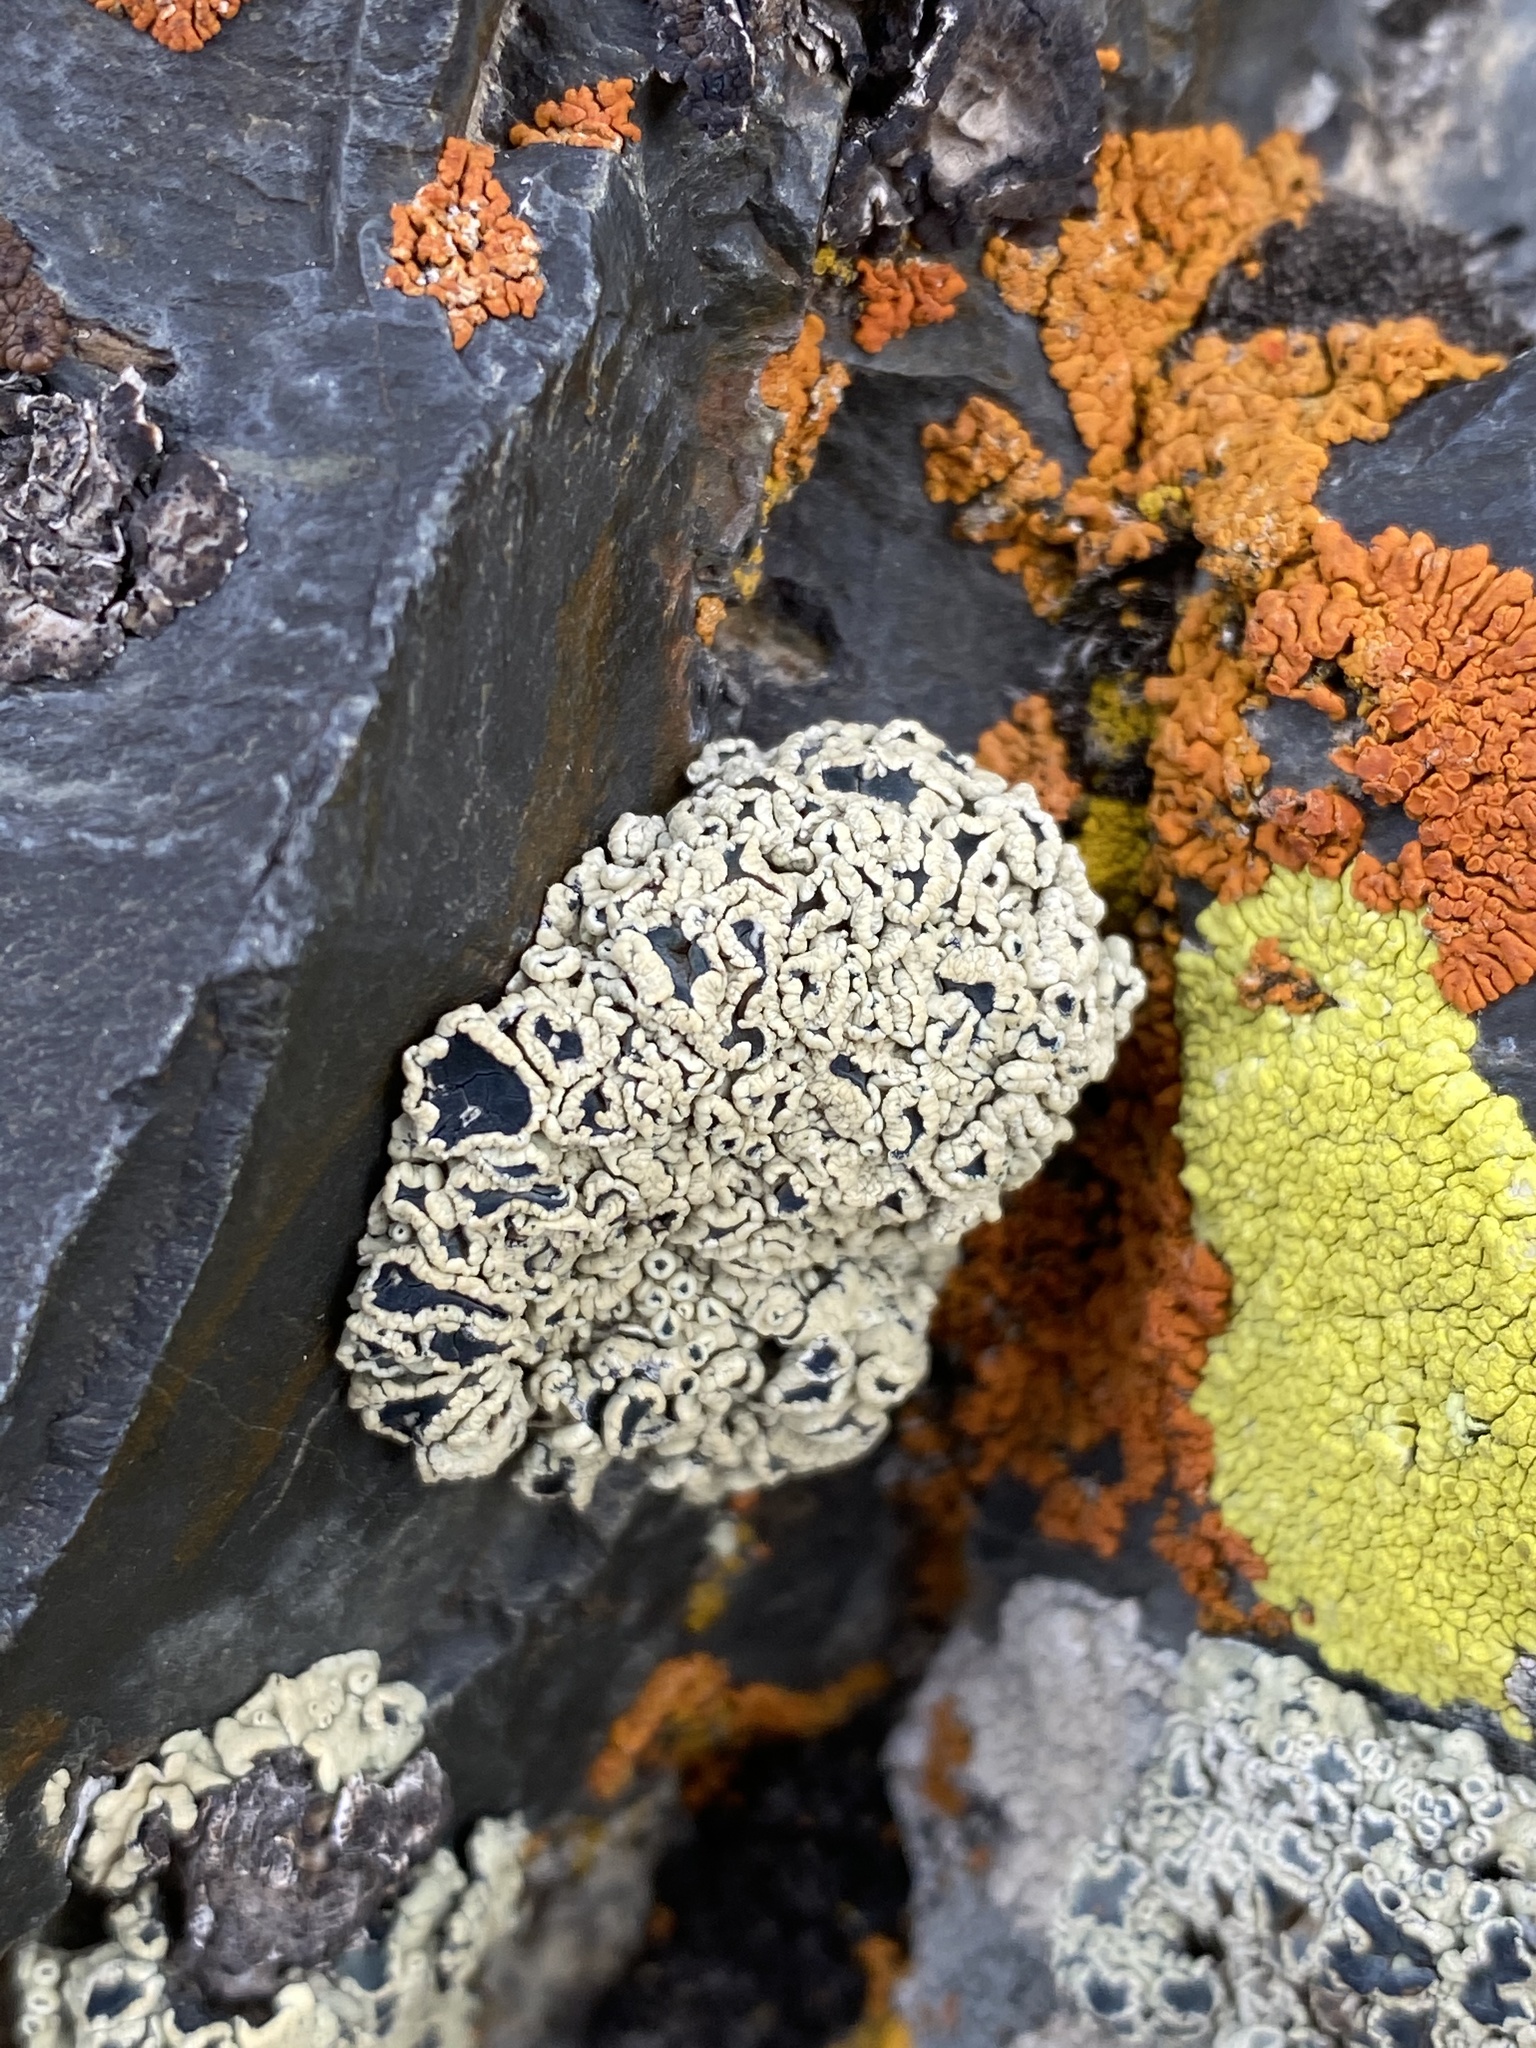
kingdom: Fungi
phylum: Ascomycota
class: Lecanoromycetes
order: Lecanorales
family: Lecanoraceae
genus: Rhizoplaca
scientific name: Rhizoplaca melanophthalma
